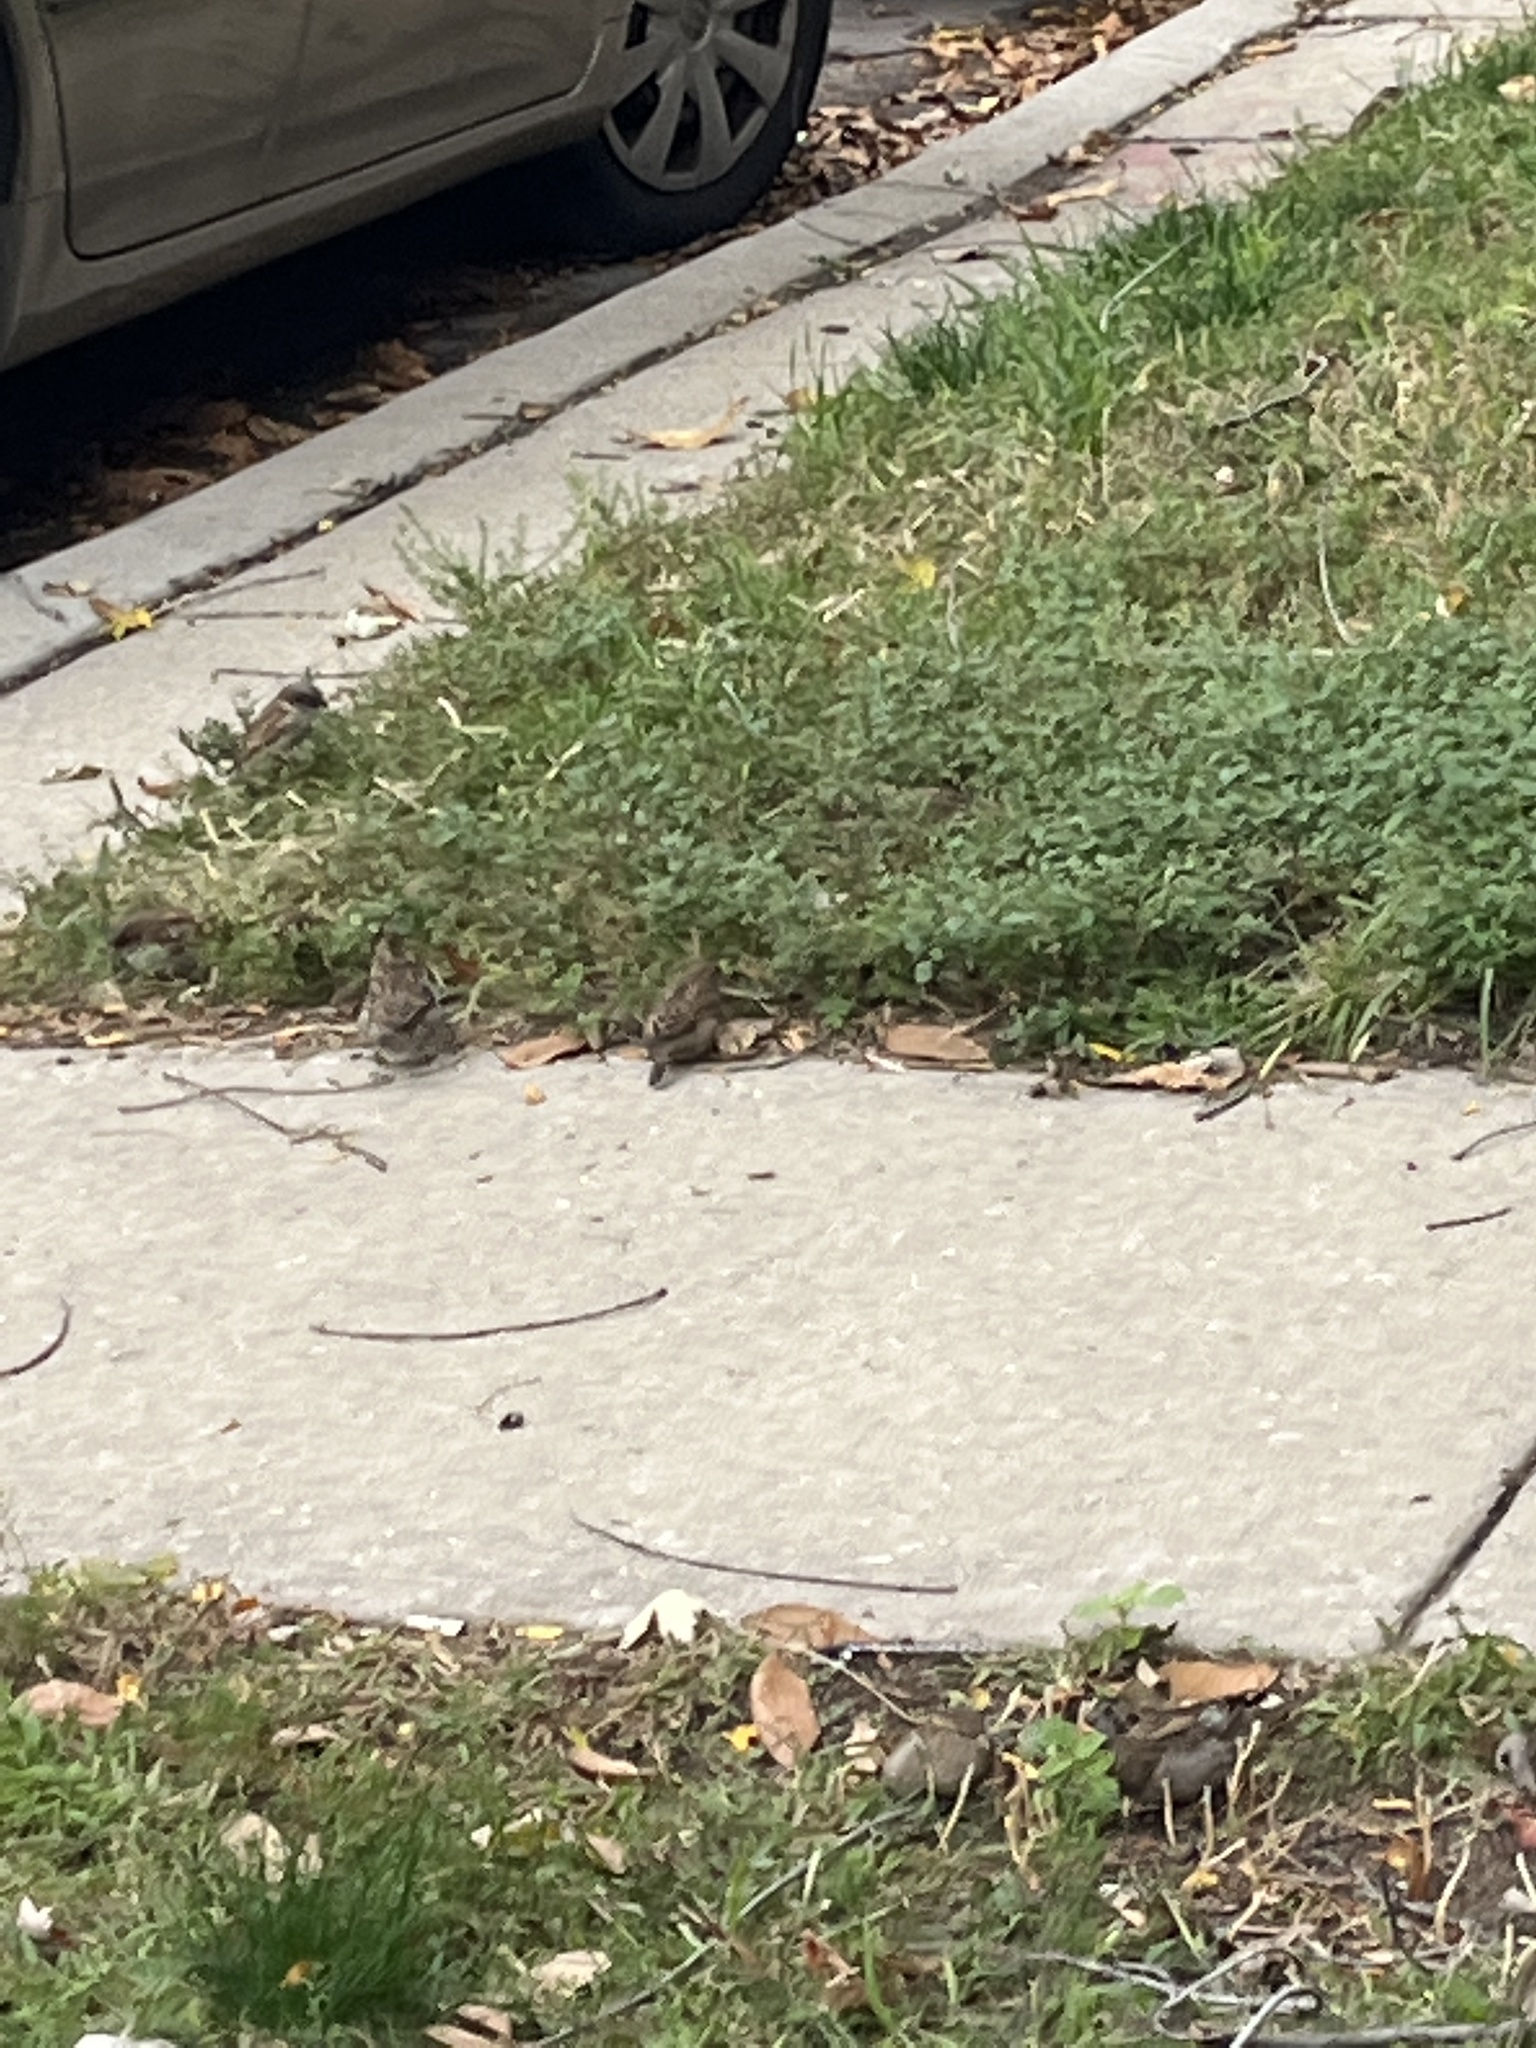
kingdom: Animalia
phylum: Chordata
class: Aves
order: Passeriformes
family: Passeridae
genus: Passer
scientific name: Passer domesticus
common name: House sparrow
